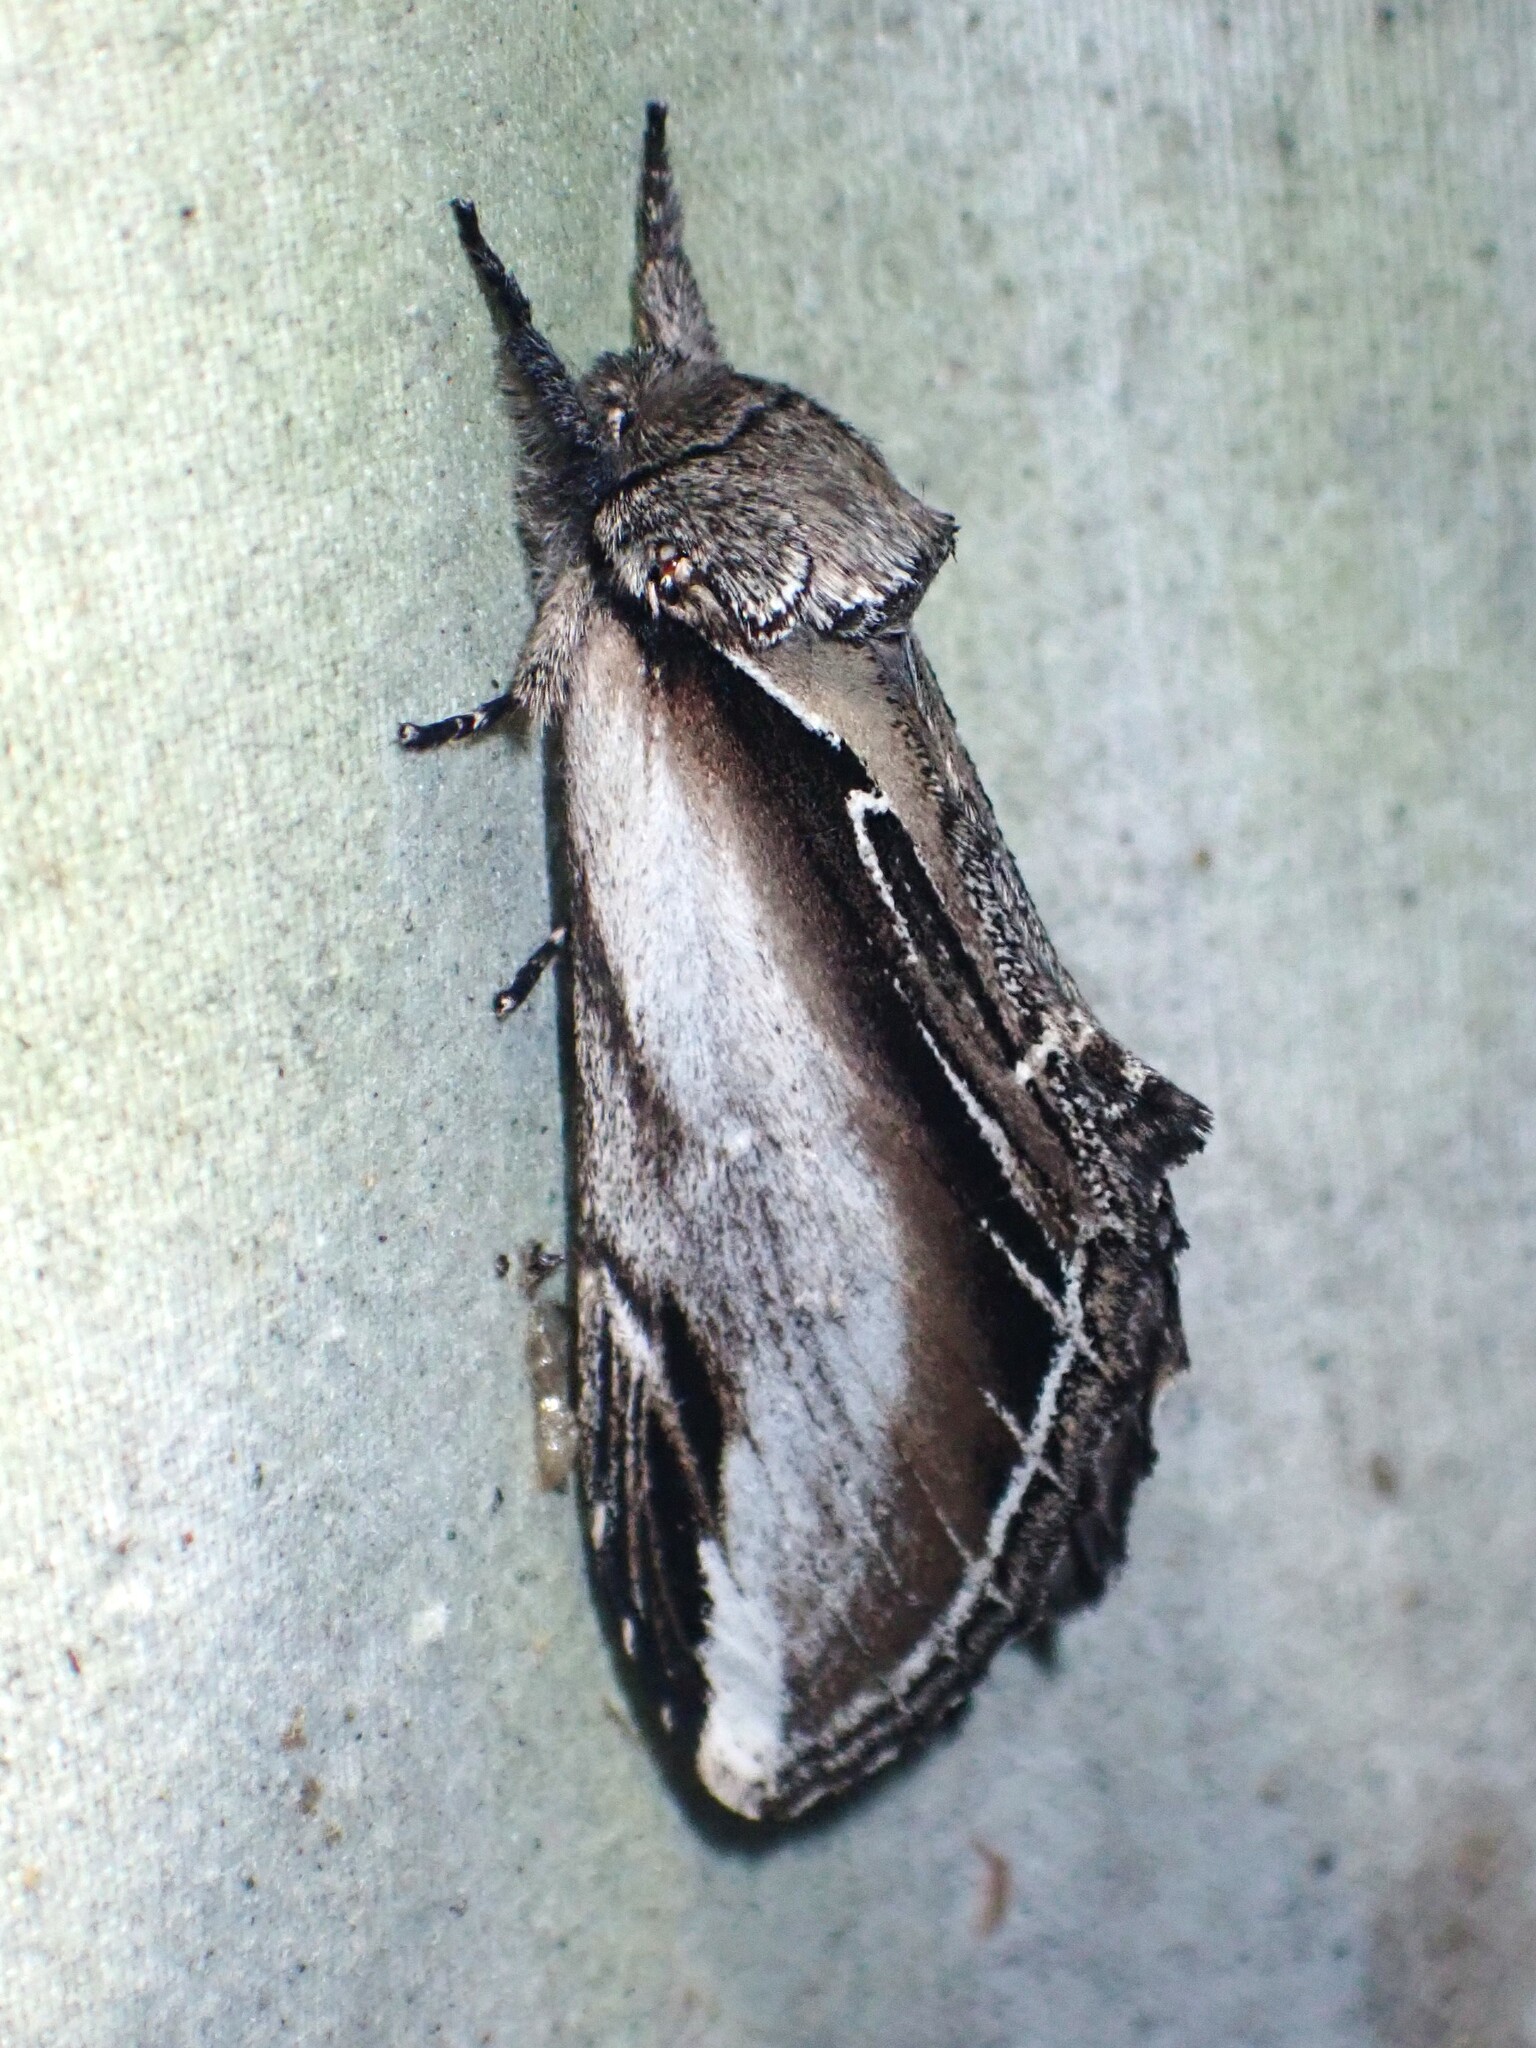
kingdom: Animalia
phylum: Arthropoda
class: Insecta
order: Lepidoptera
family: Notodontidae
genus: Pheosia
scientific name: Pheosia rimosa
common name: Black-rimmed prominent
